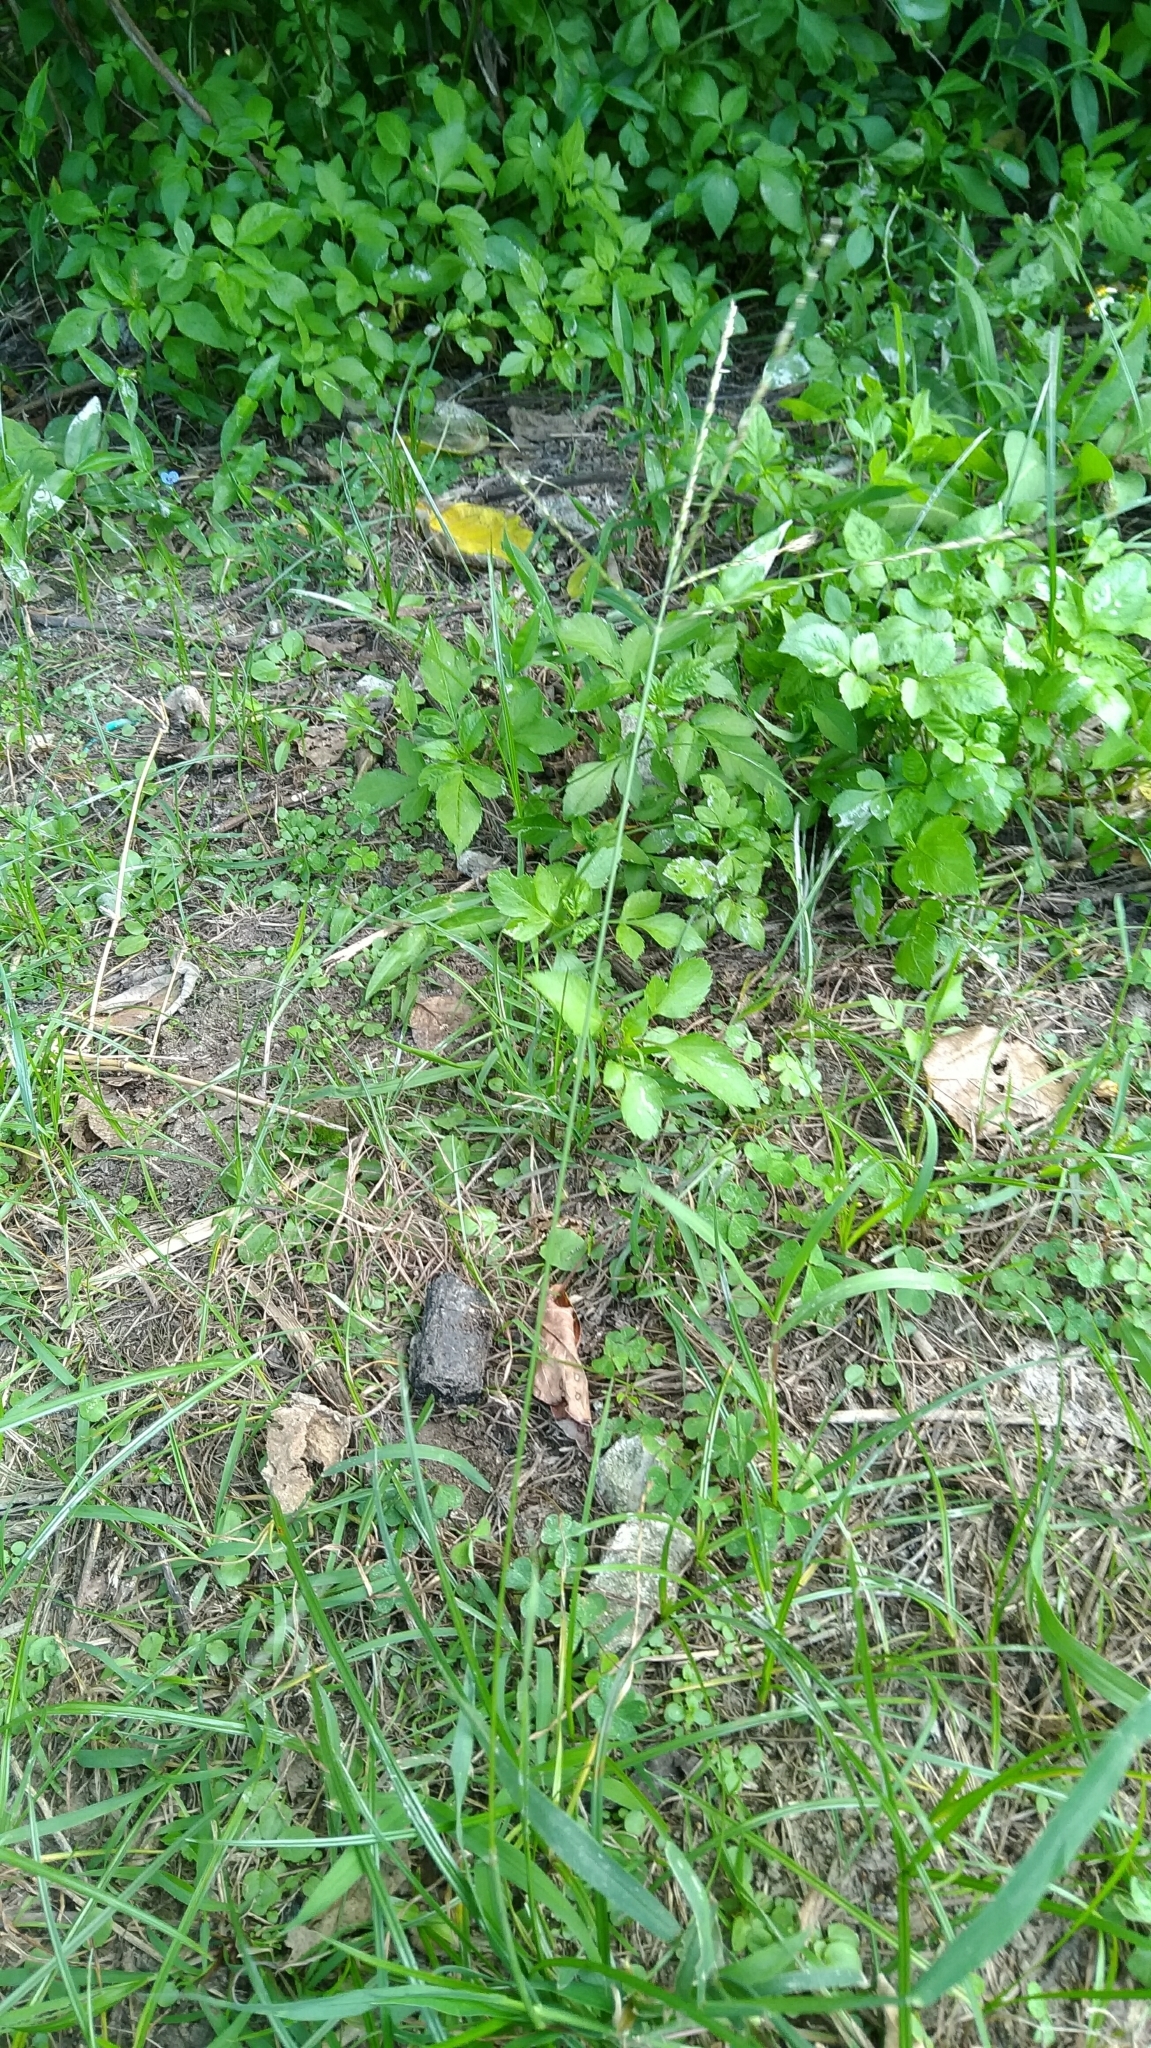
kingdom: Plantae
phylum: Tracheophyta
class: Liliopsida
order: Poales
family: Poaceae
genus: Digitaria
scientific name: Digitaria sanguinalis
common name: Hairy crabgrass
